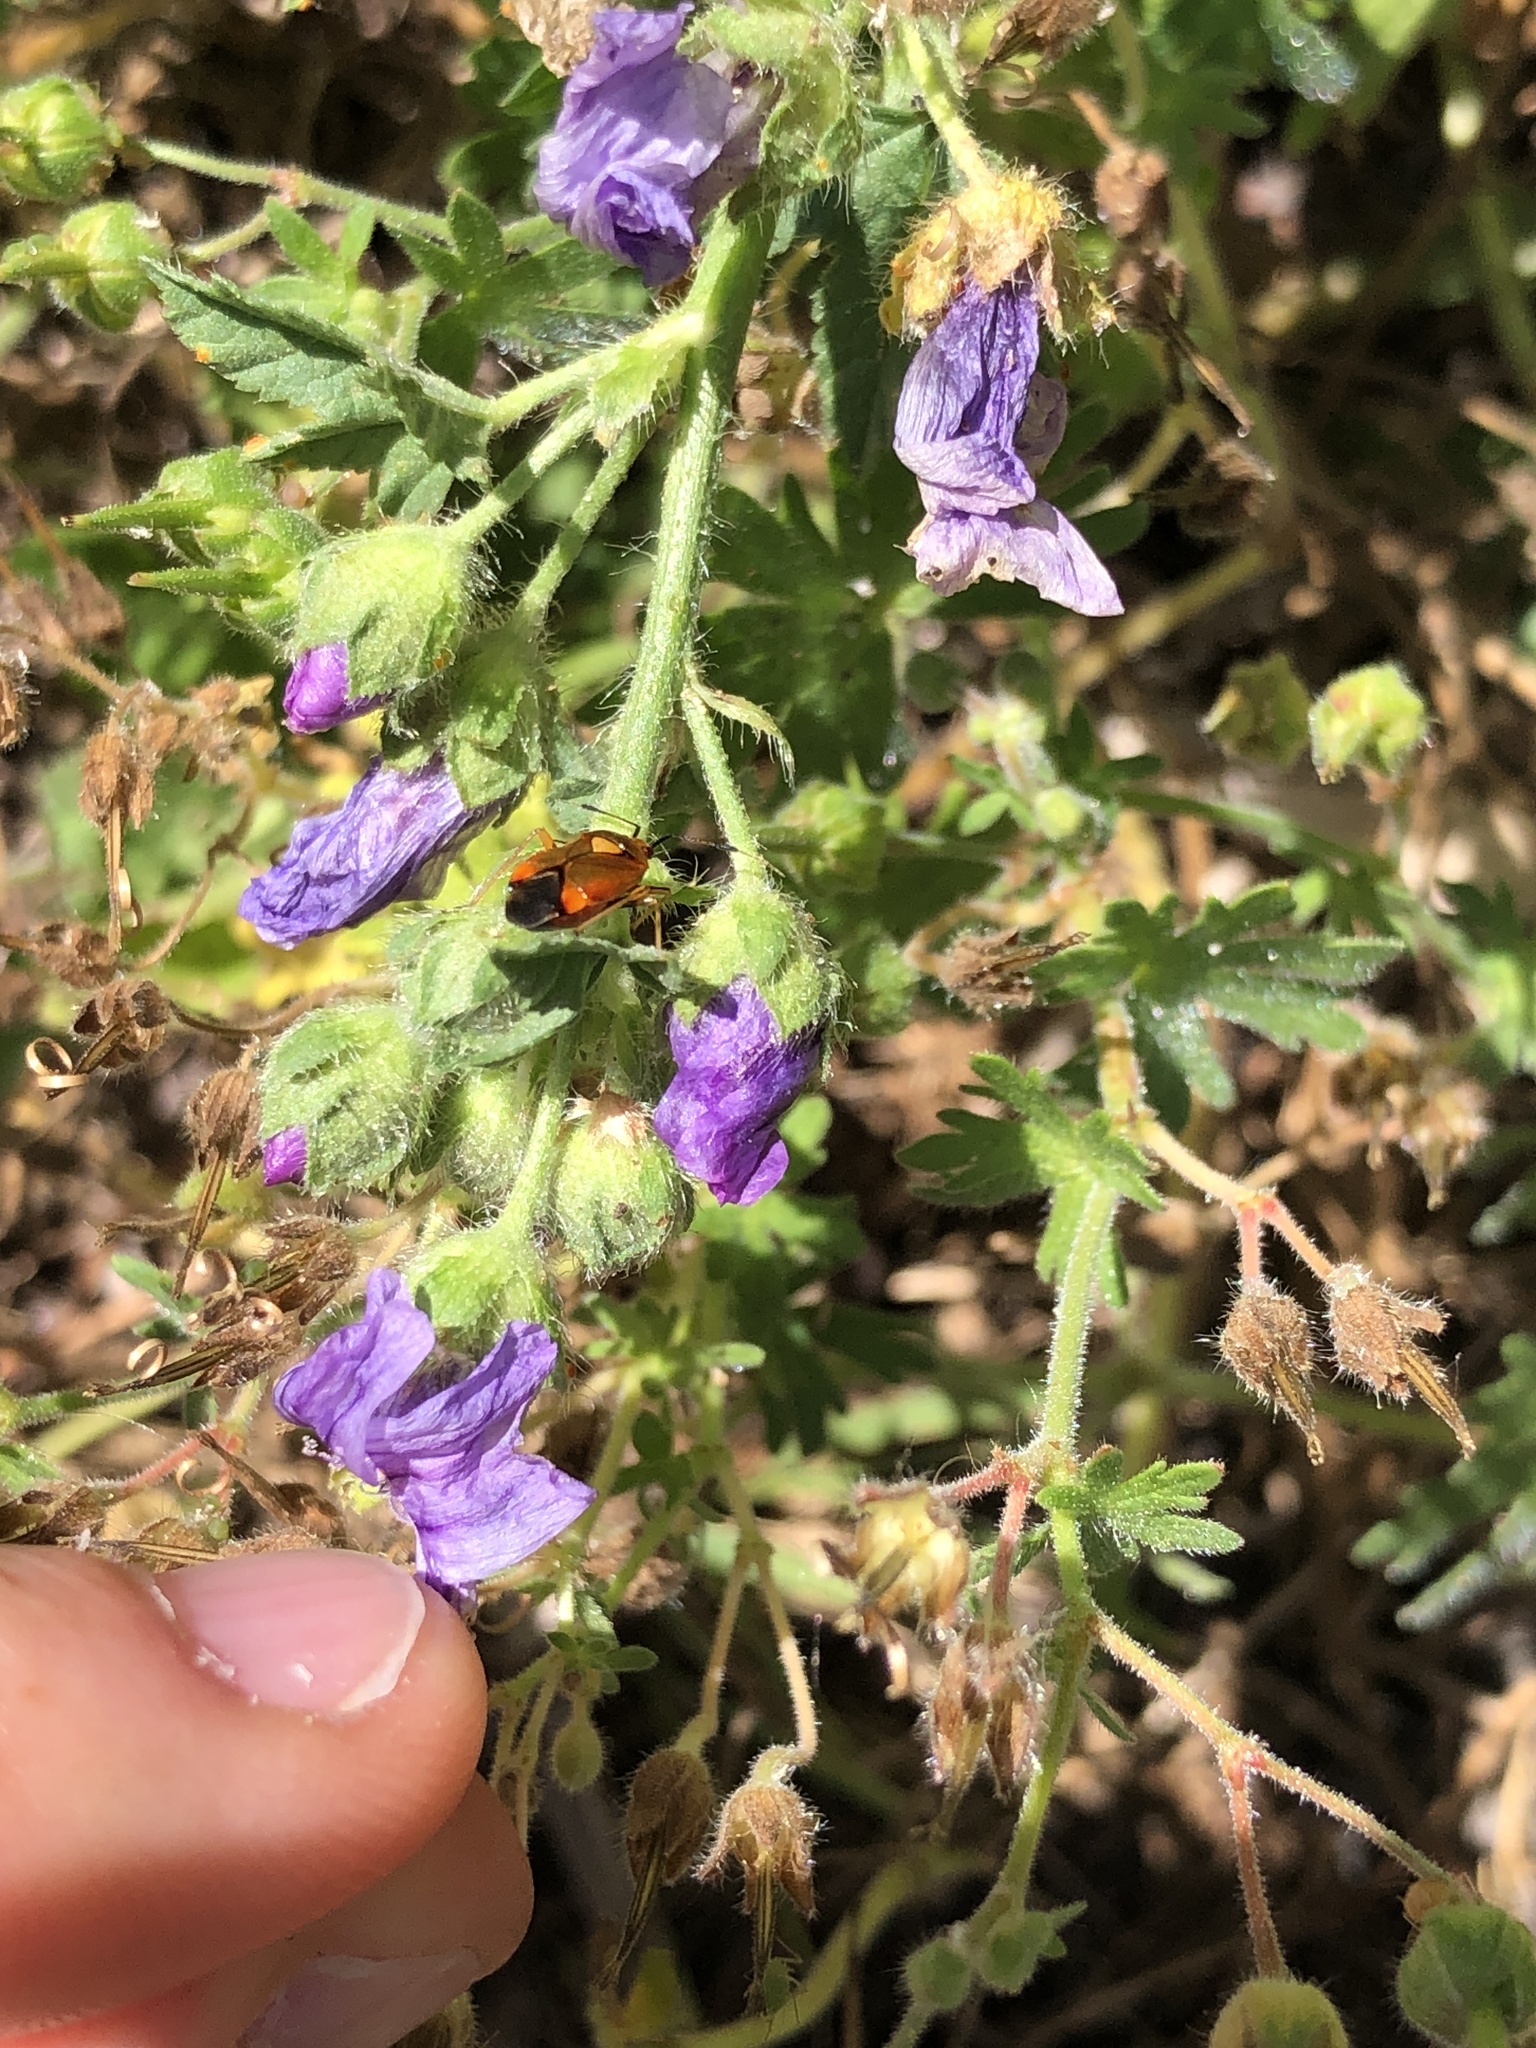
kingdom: Animalia
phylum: Arthropoda
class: Insecta
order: Hemiptera
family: Miridae
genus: Deraeocoris
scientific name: Deraeocoris ruber
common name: Plant bug
